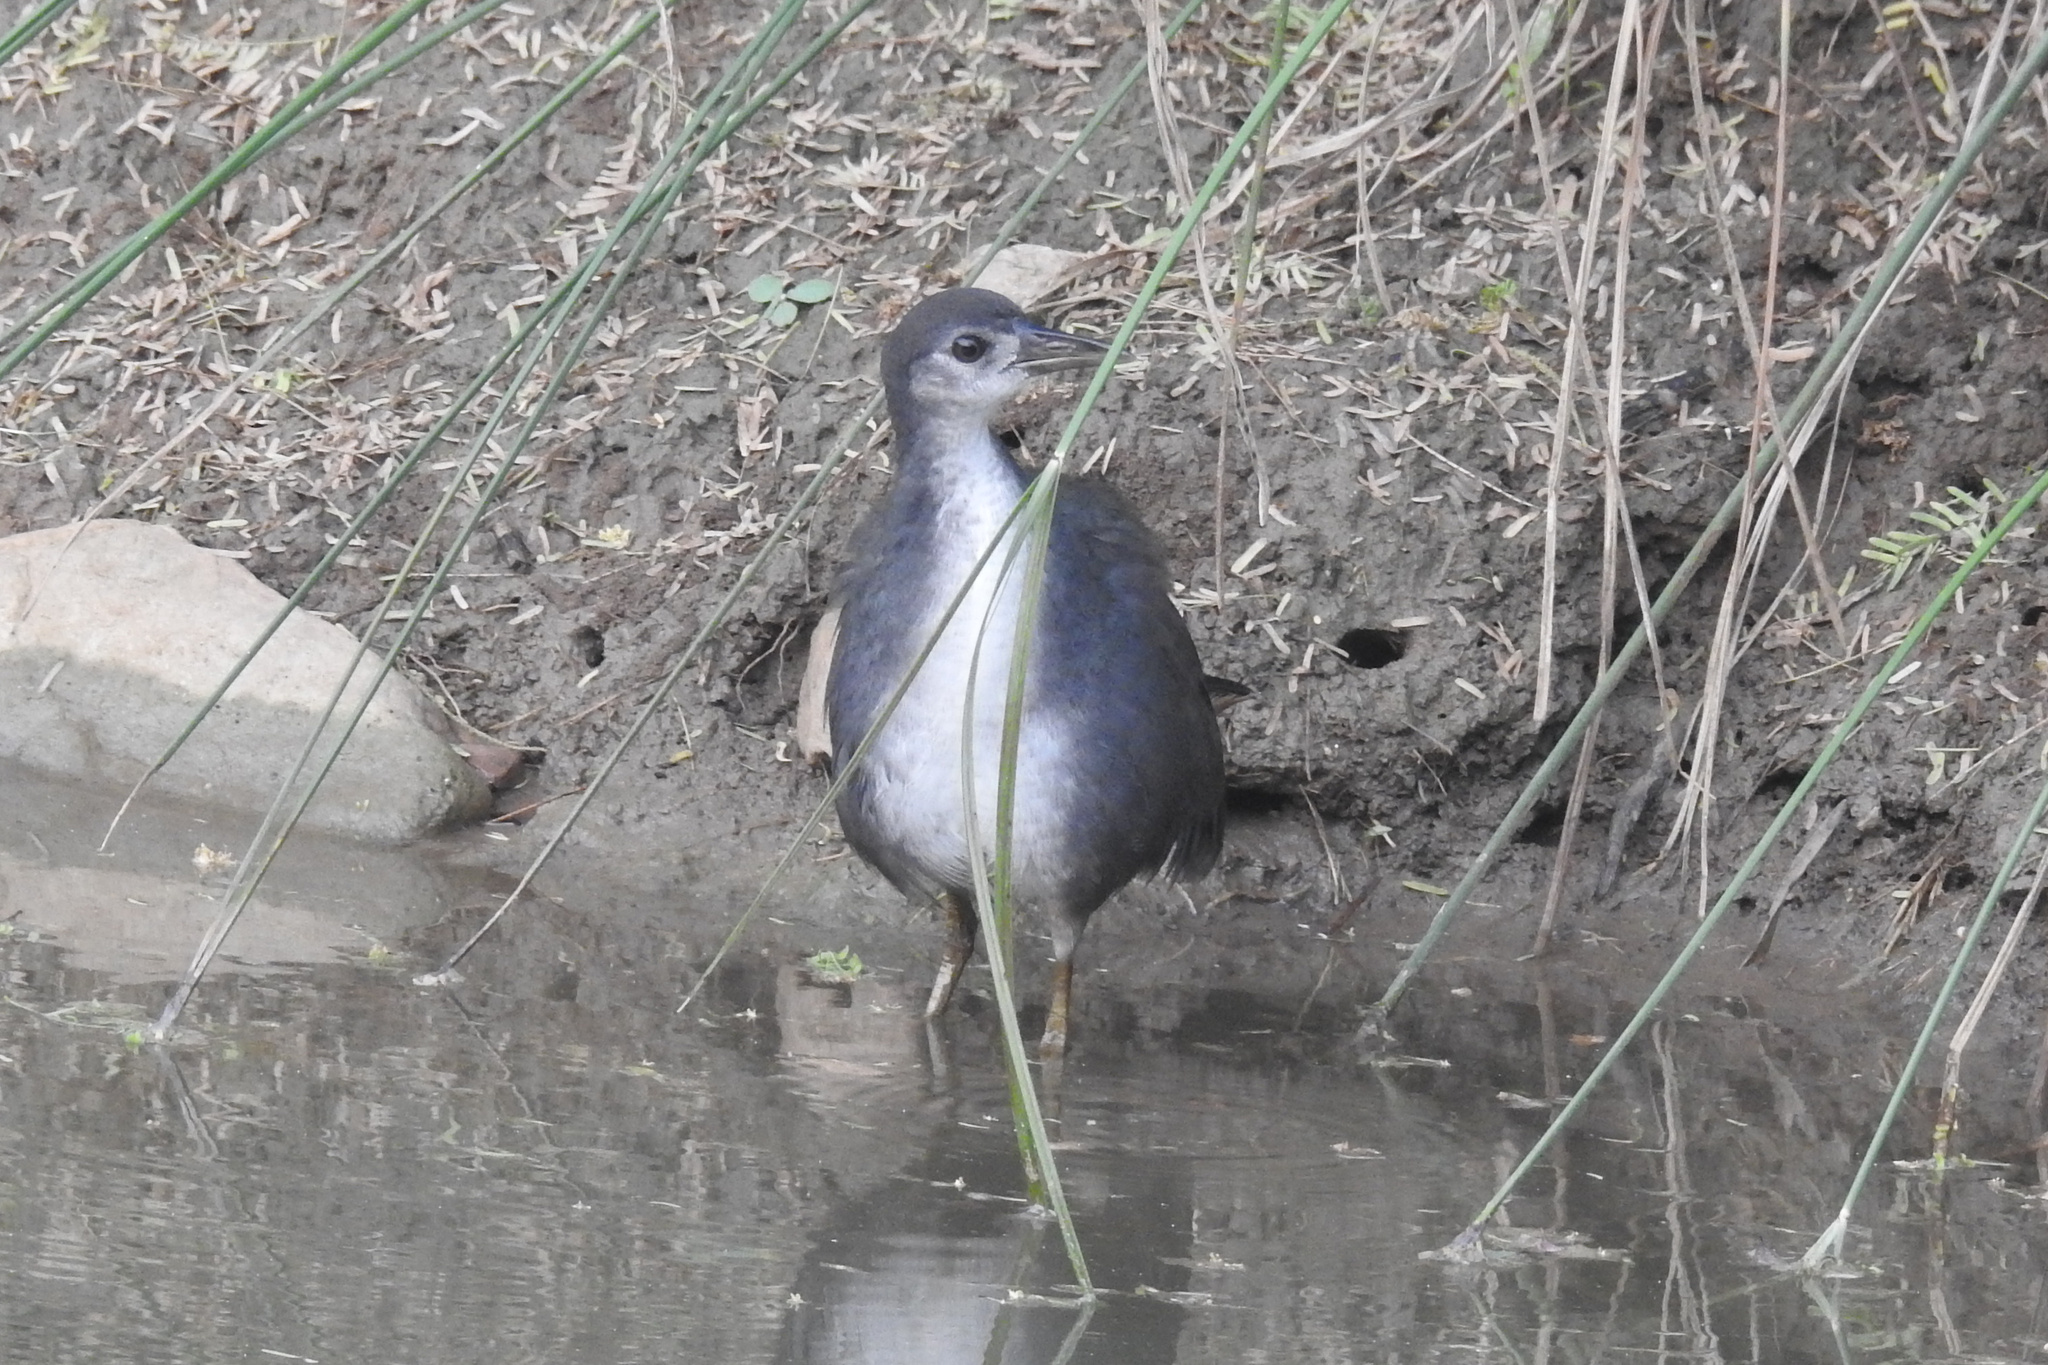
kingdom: Animalia
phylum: Chordata
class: Aves
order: Gruiformes
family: Rallidae
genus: Amaurornis
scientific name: Amaurornis phoenicurus
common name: White-breasted waterhen
